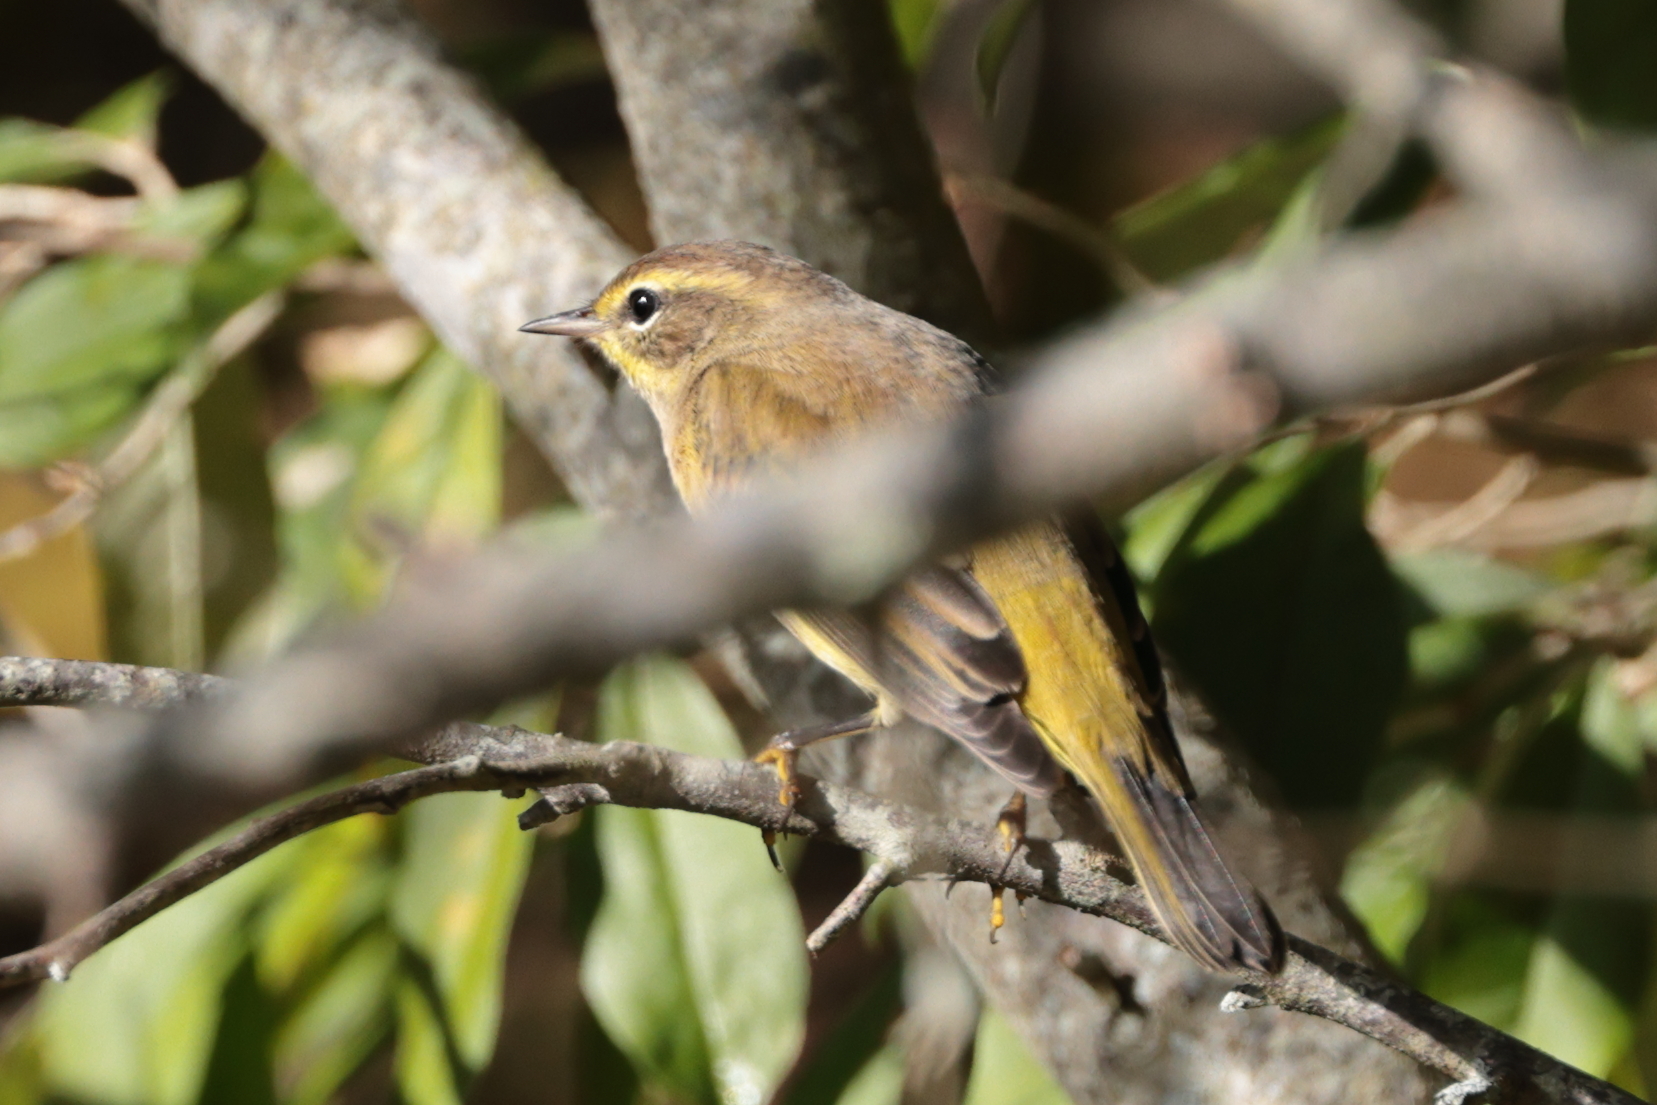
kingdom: Animalia
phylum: Chordata
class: Aves
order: Passeriformes
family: Parulidae
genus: Setophaga
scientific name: Setophaga palmarum
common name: Palm warbler
